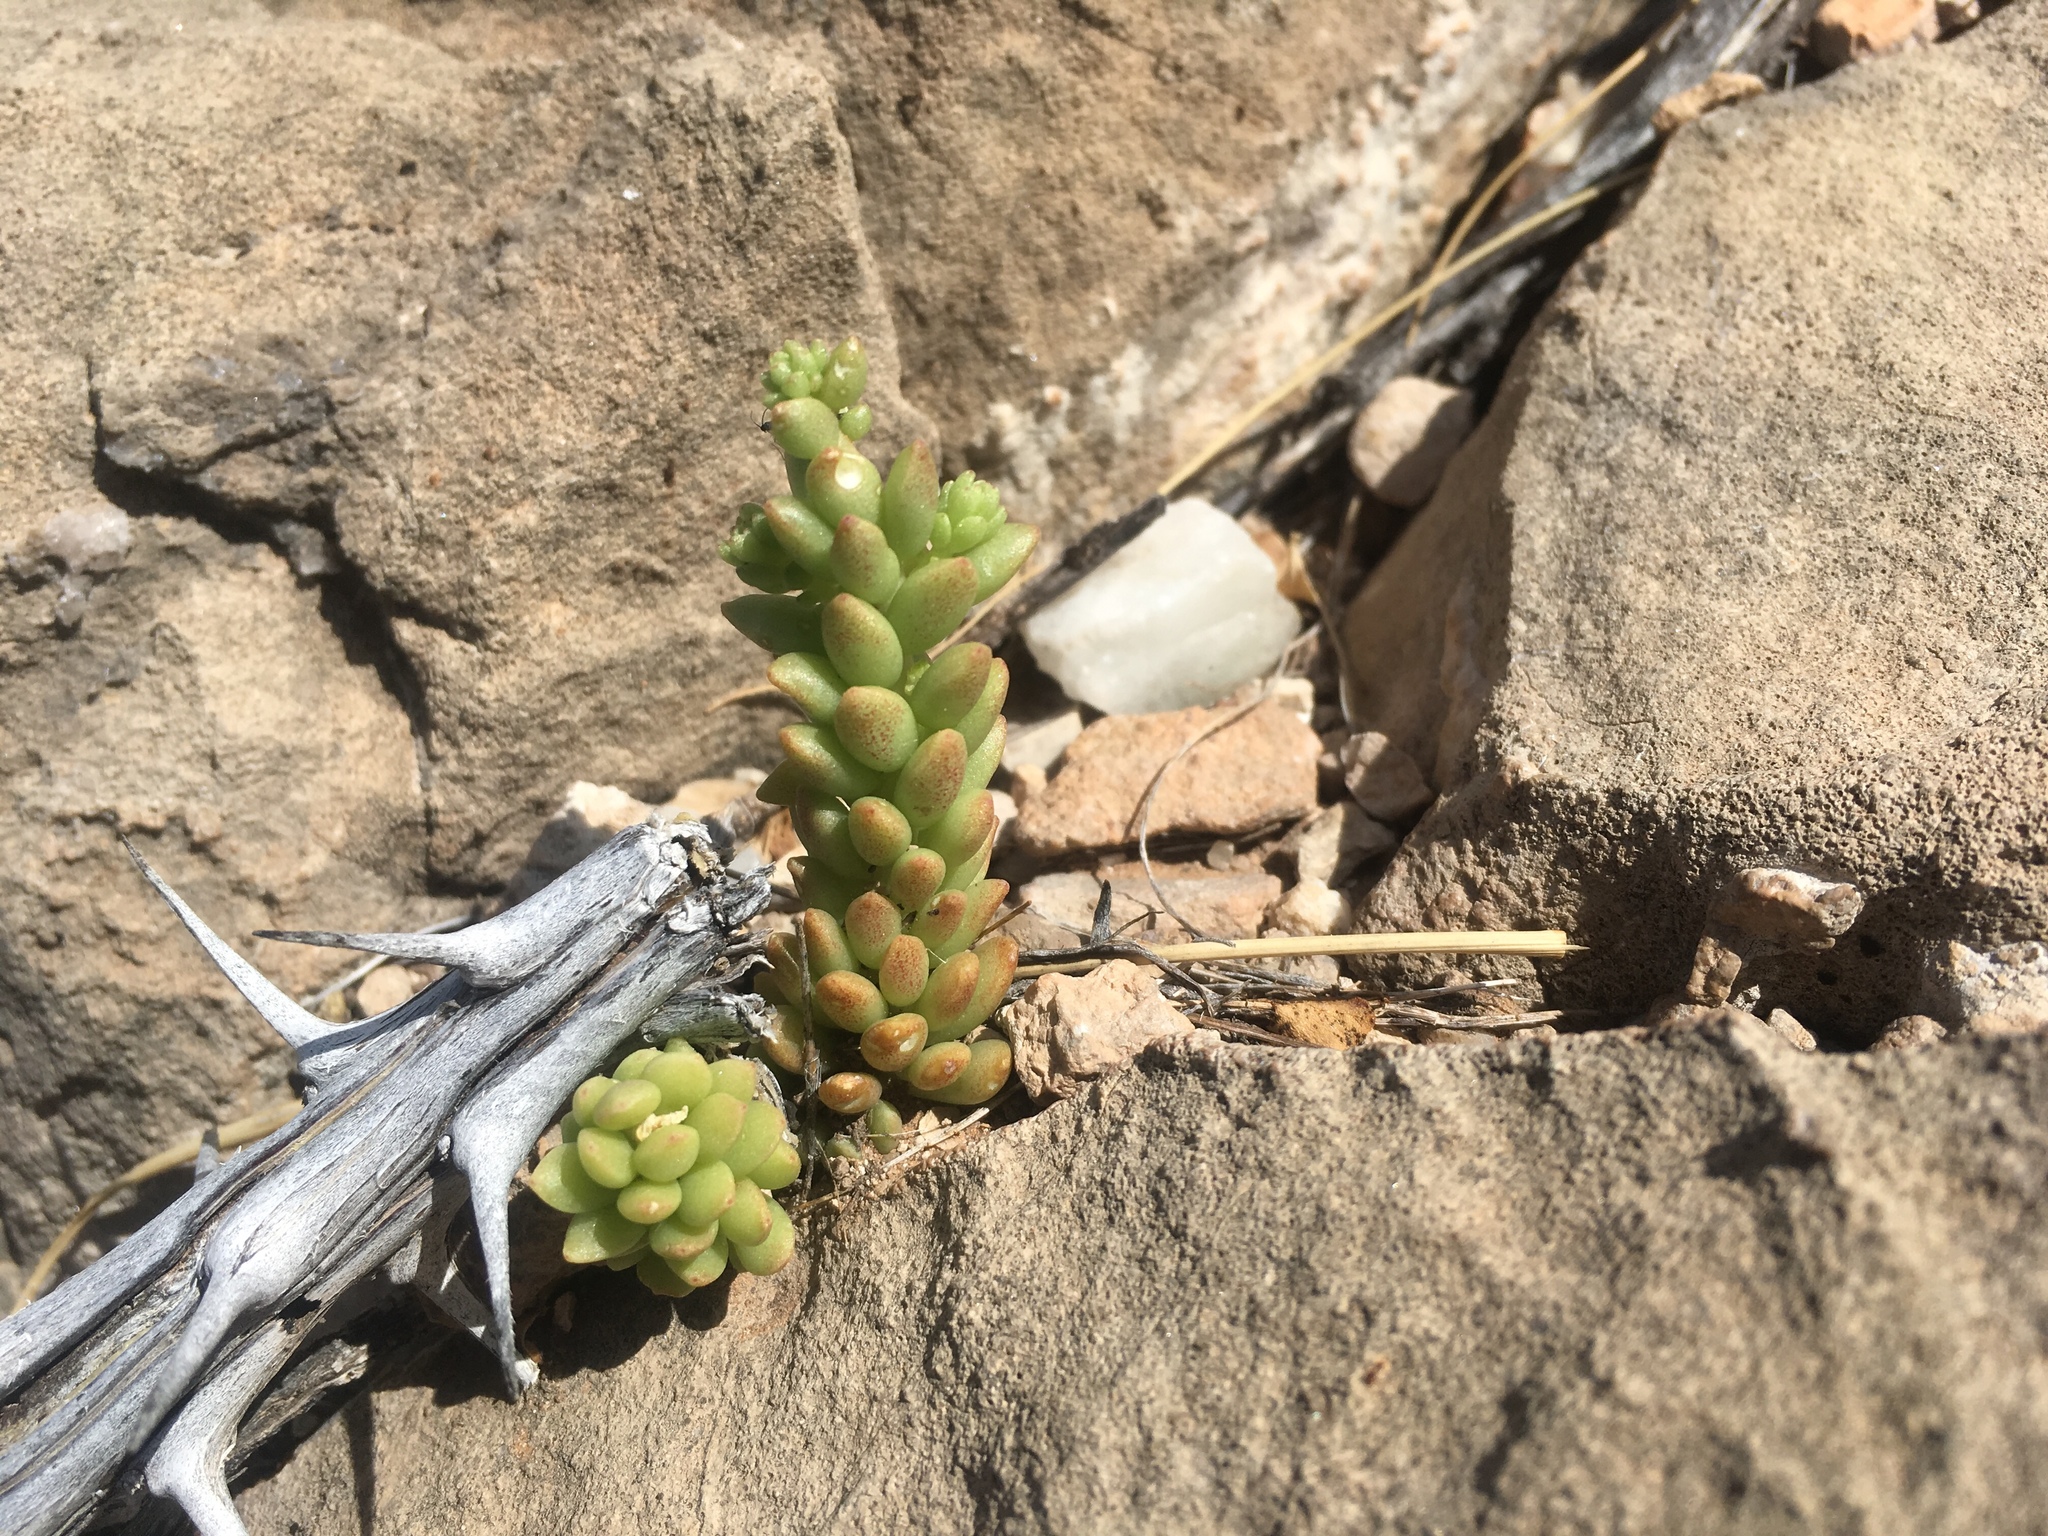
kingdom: Plantae
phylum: Tracheophyta
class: Magnoliopsida
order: Saxifragales
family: Crassulaceae
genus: Sedum
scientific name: Sedum wrightii
